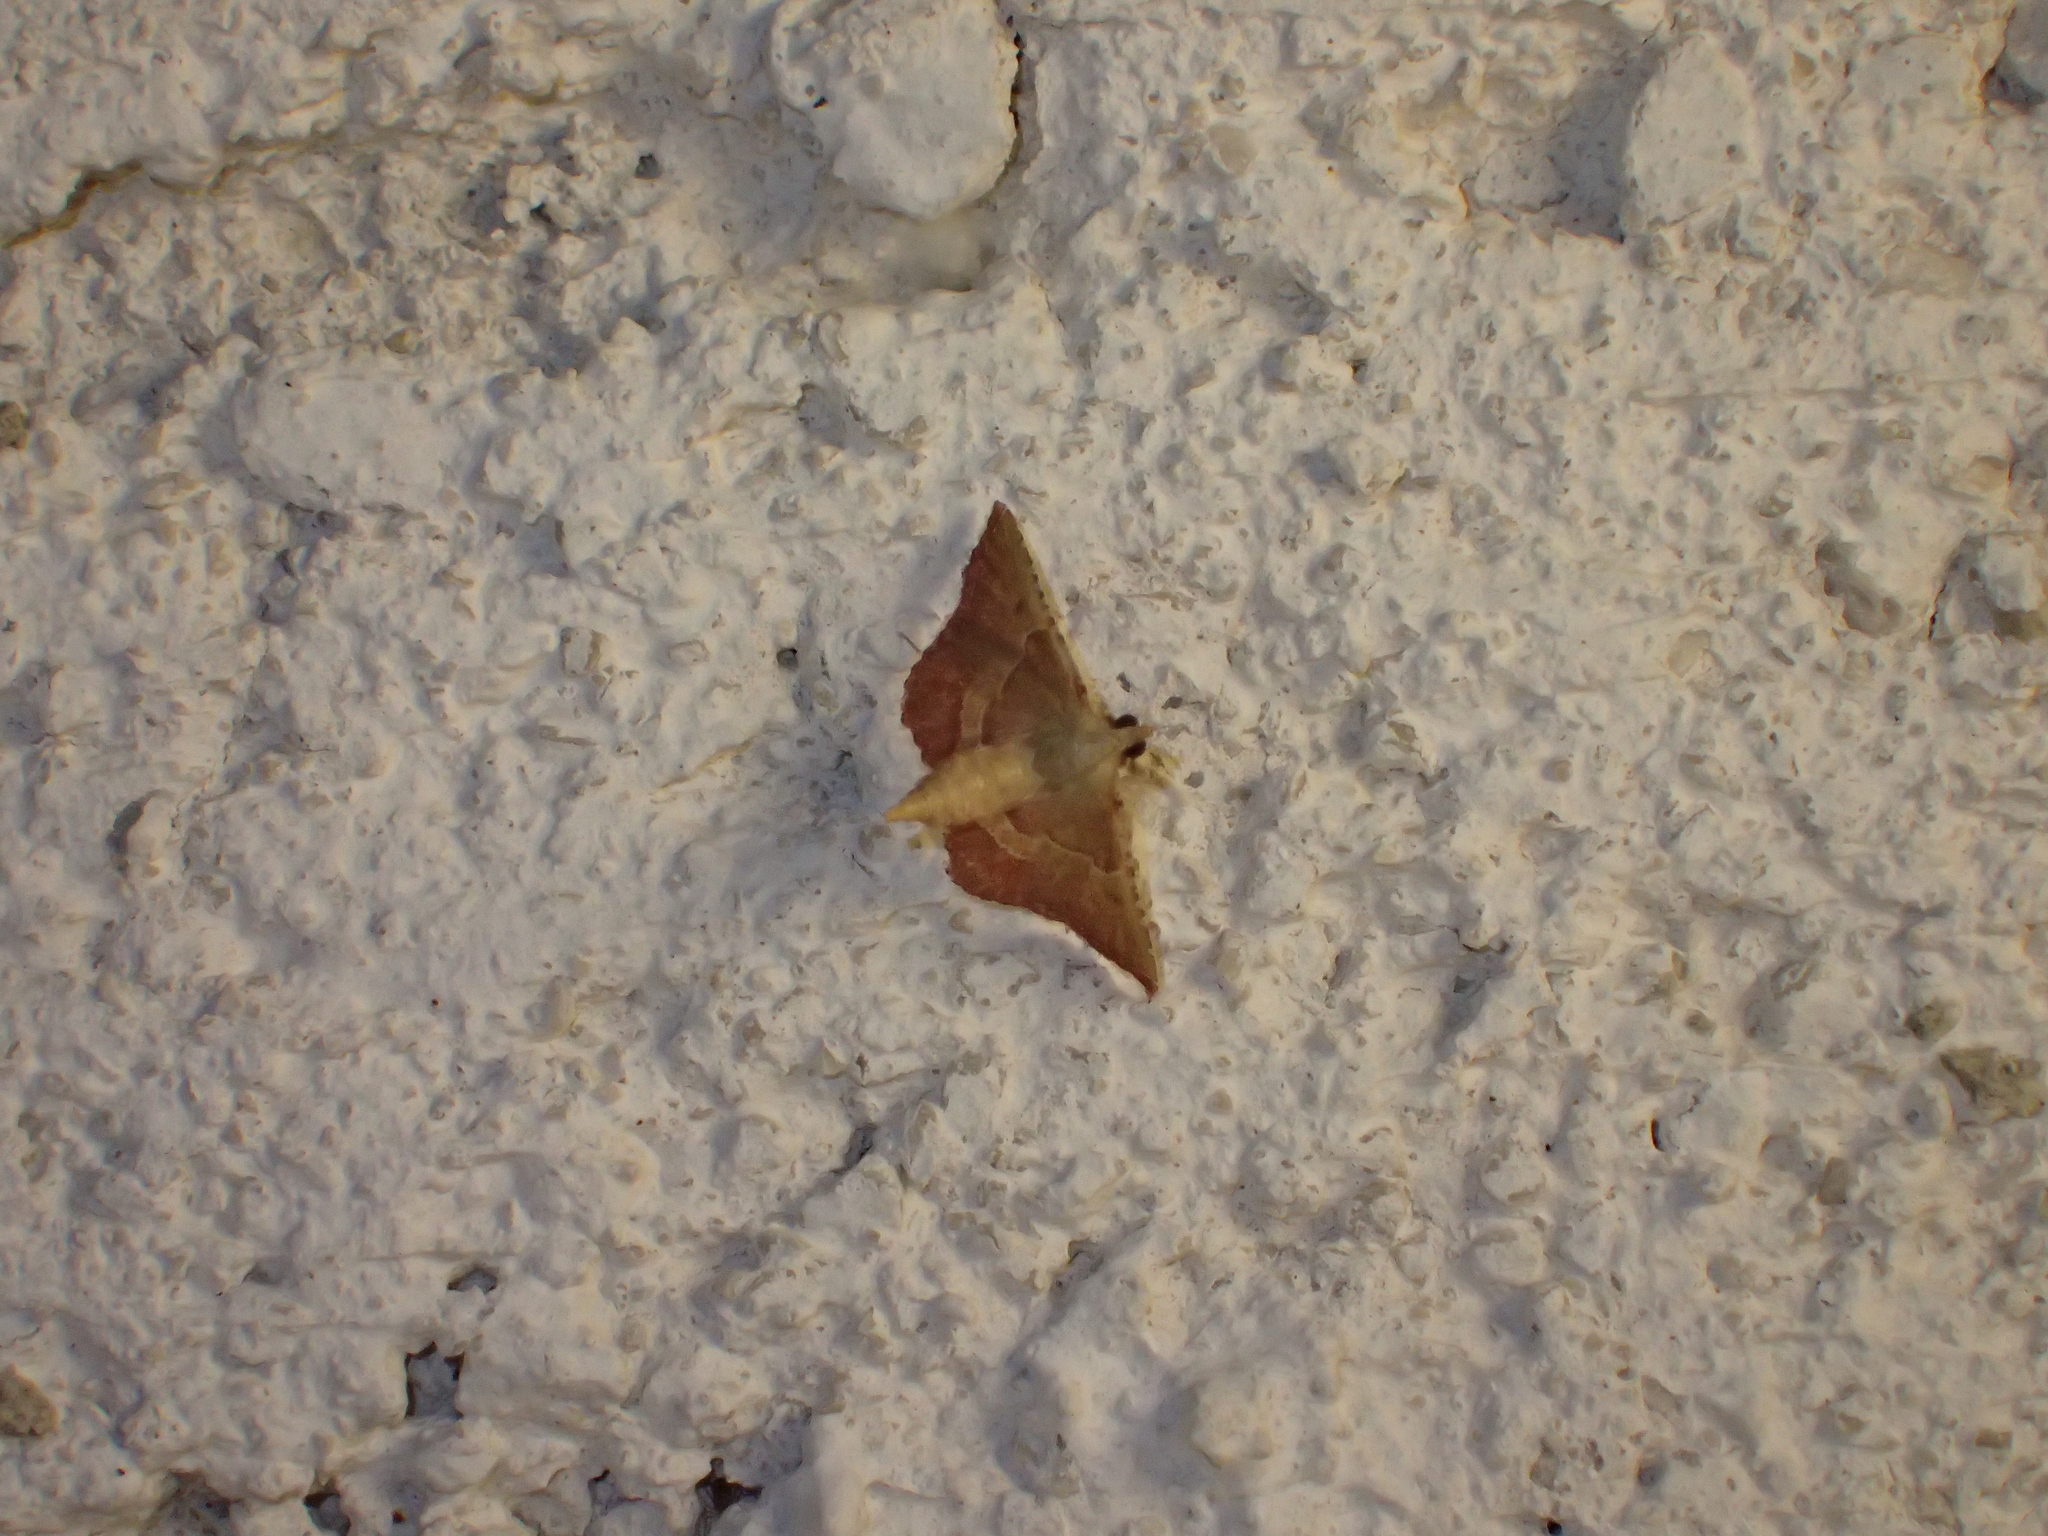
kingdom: Animalia
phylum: Arthropoda
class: Insecta
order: Lepidoptera
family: Pyralidae
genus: Endotricha
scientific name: Endotricha flammealis
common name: Rosy tabby
